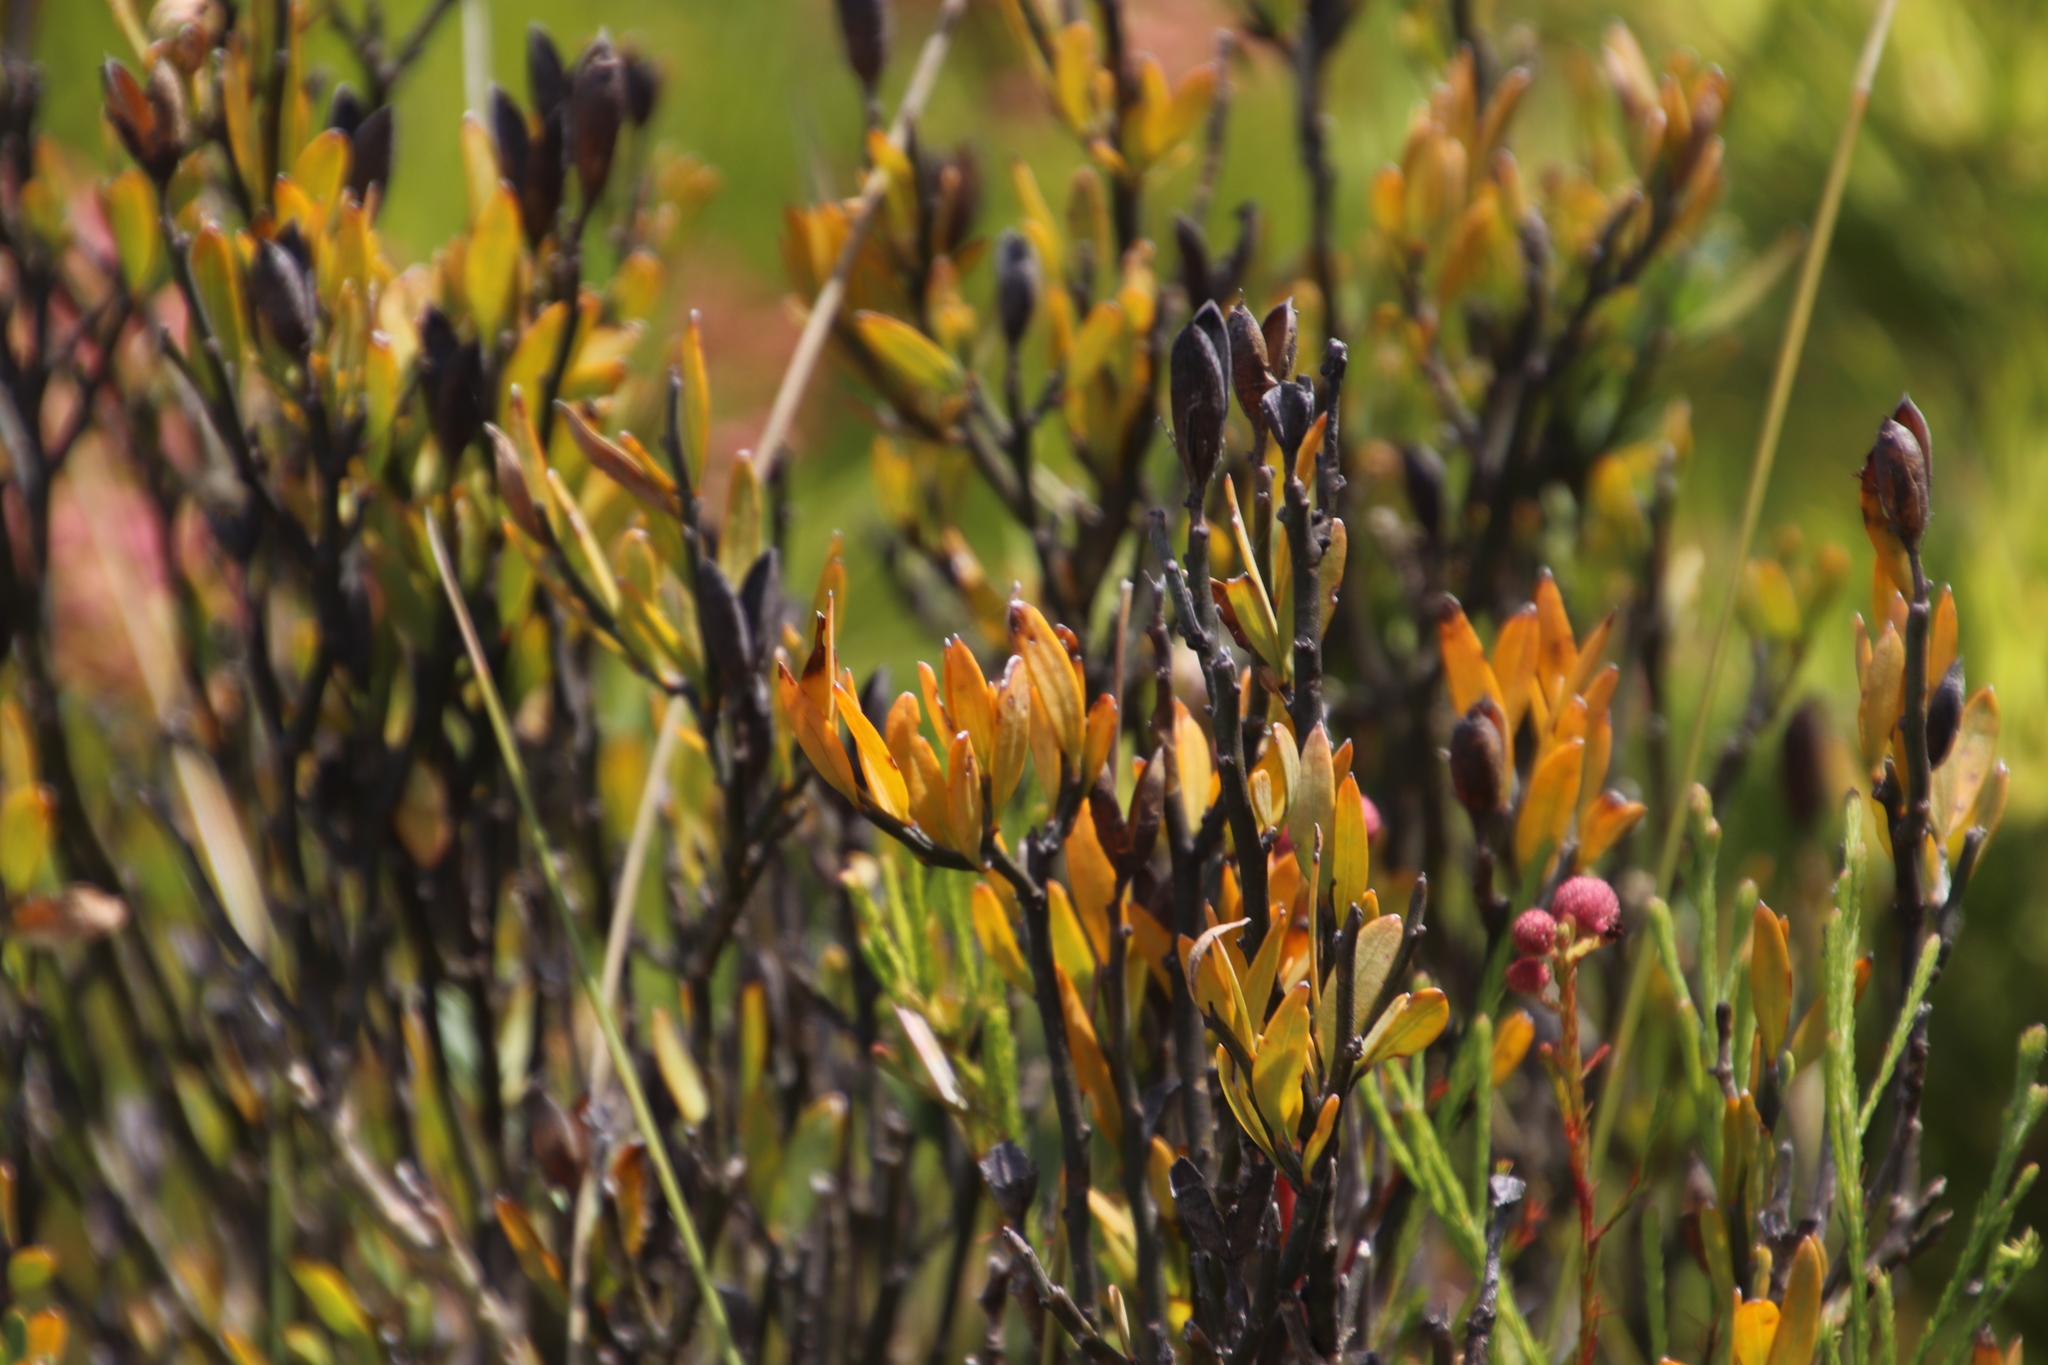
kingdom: Plantae
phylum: Tracheophyta
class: Magnoliopsida
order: Solanales
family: Montiniaceae
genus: Montinia
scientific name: Montinia caryophyllacea
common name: Wild clove-bush
